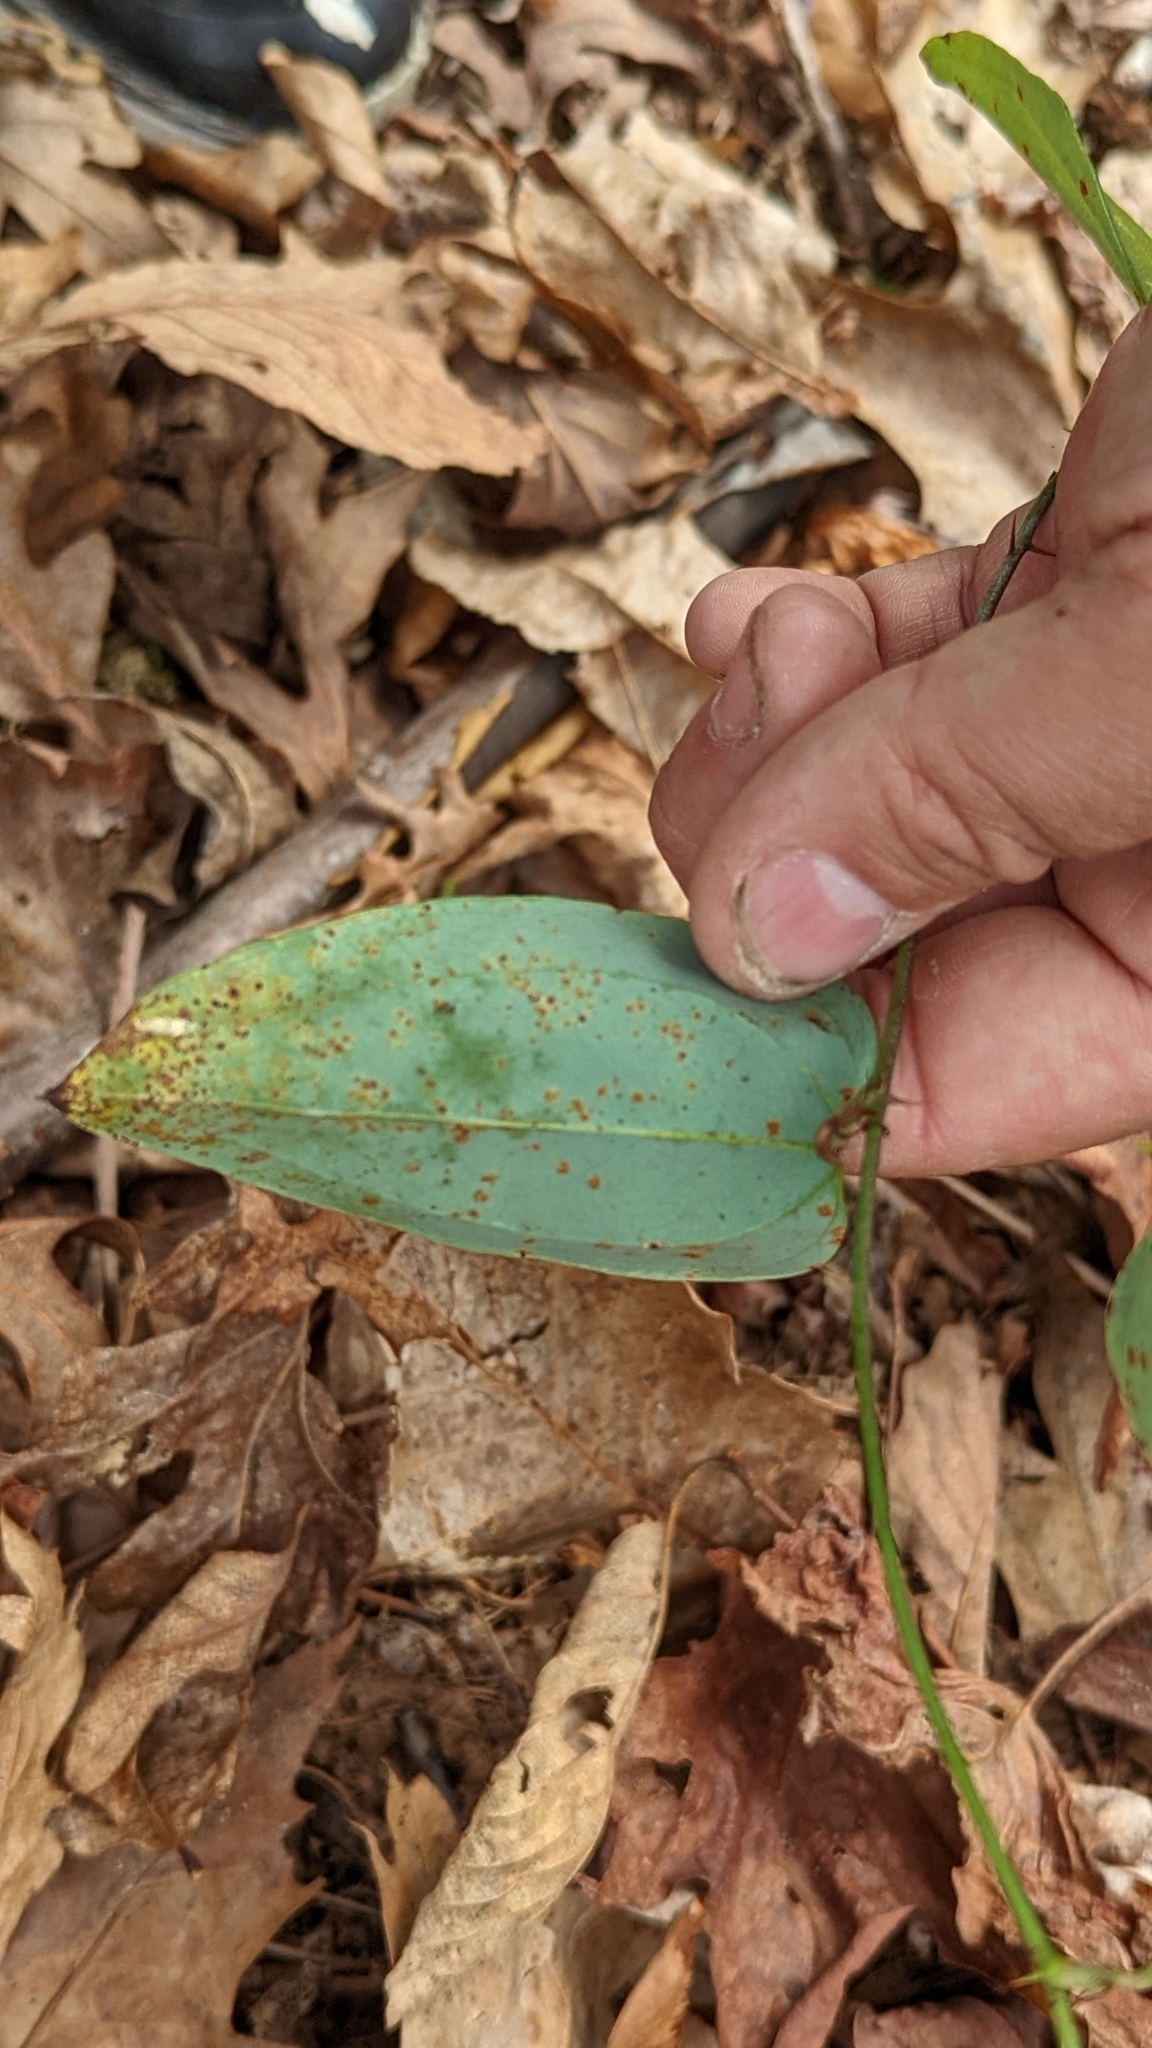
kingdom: Plantae
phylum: Tracheophyta
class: Liliopsida
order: Liliales
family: Smilacaceae
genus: Smilax
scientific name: Smilax glauca
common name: Cat greenbrier
